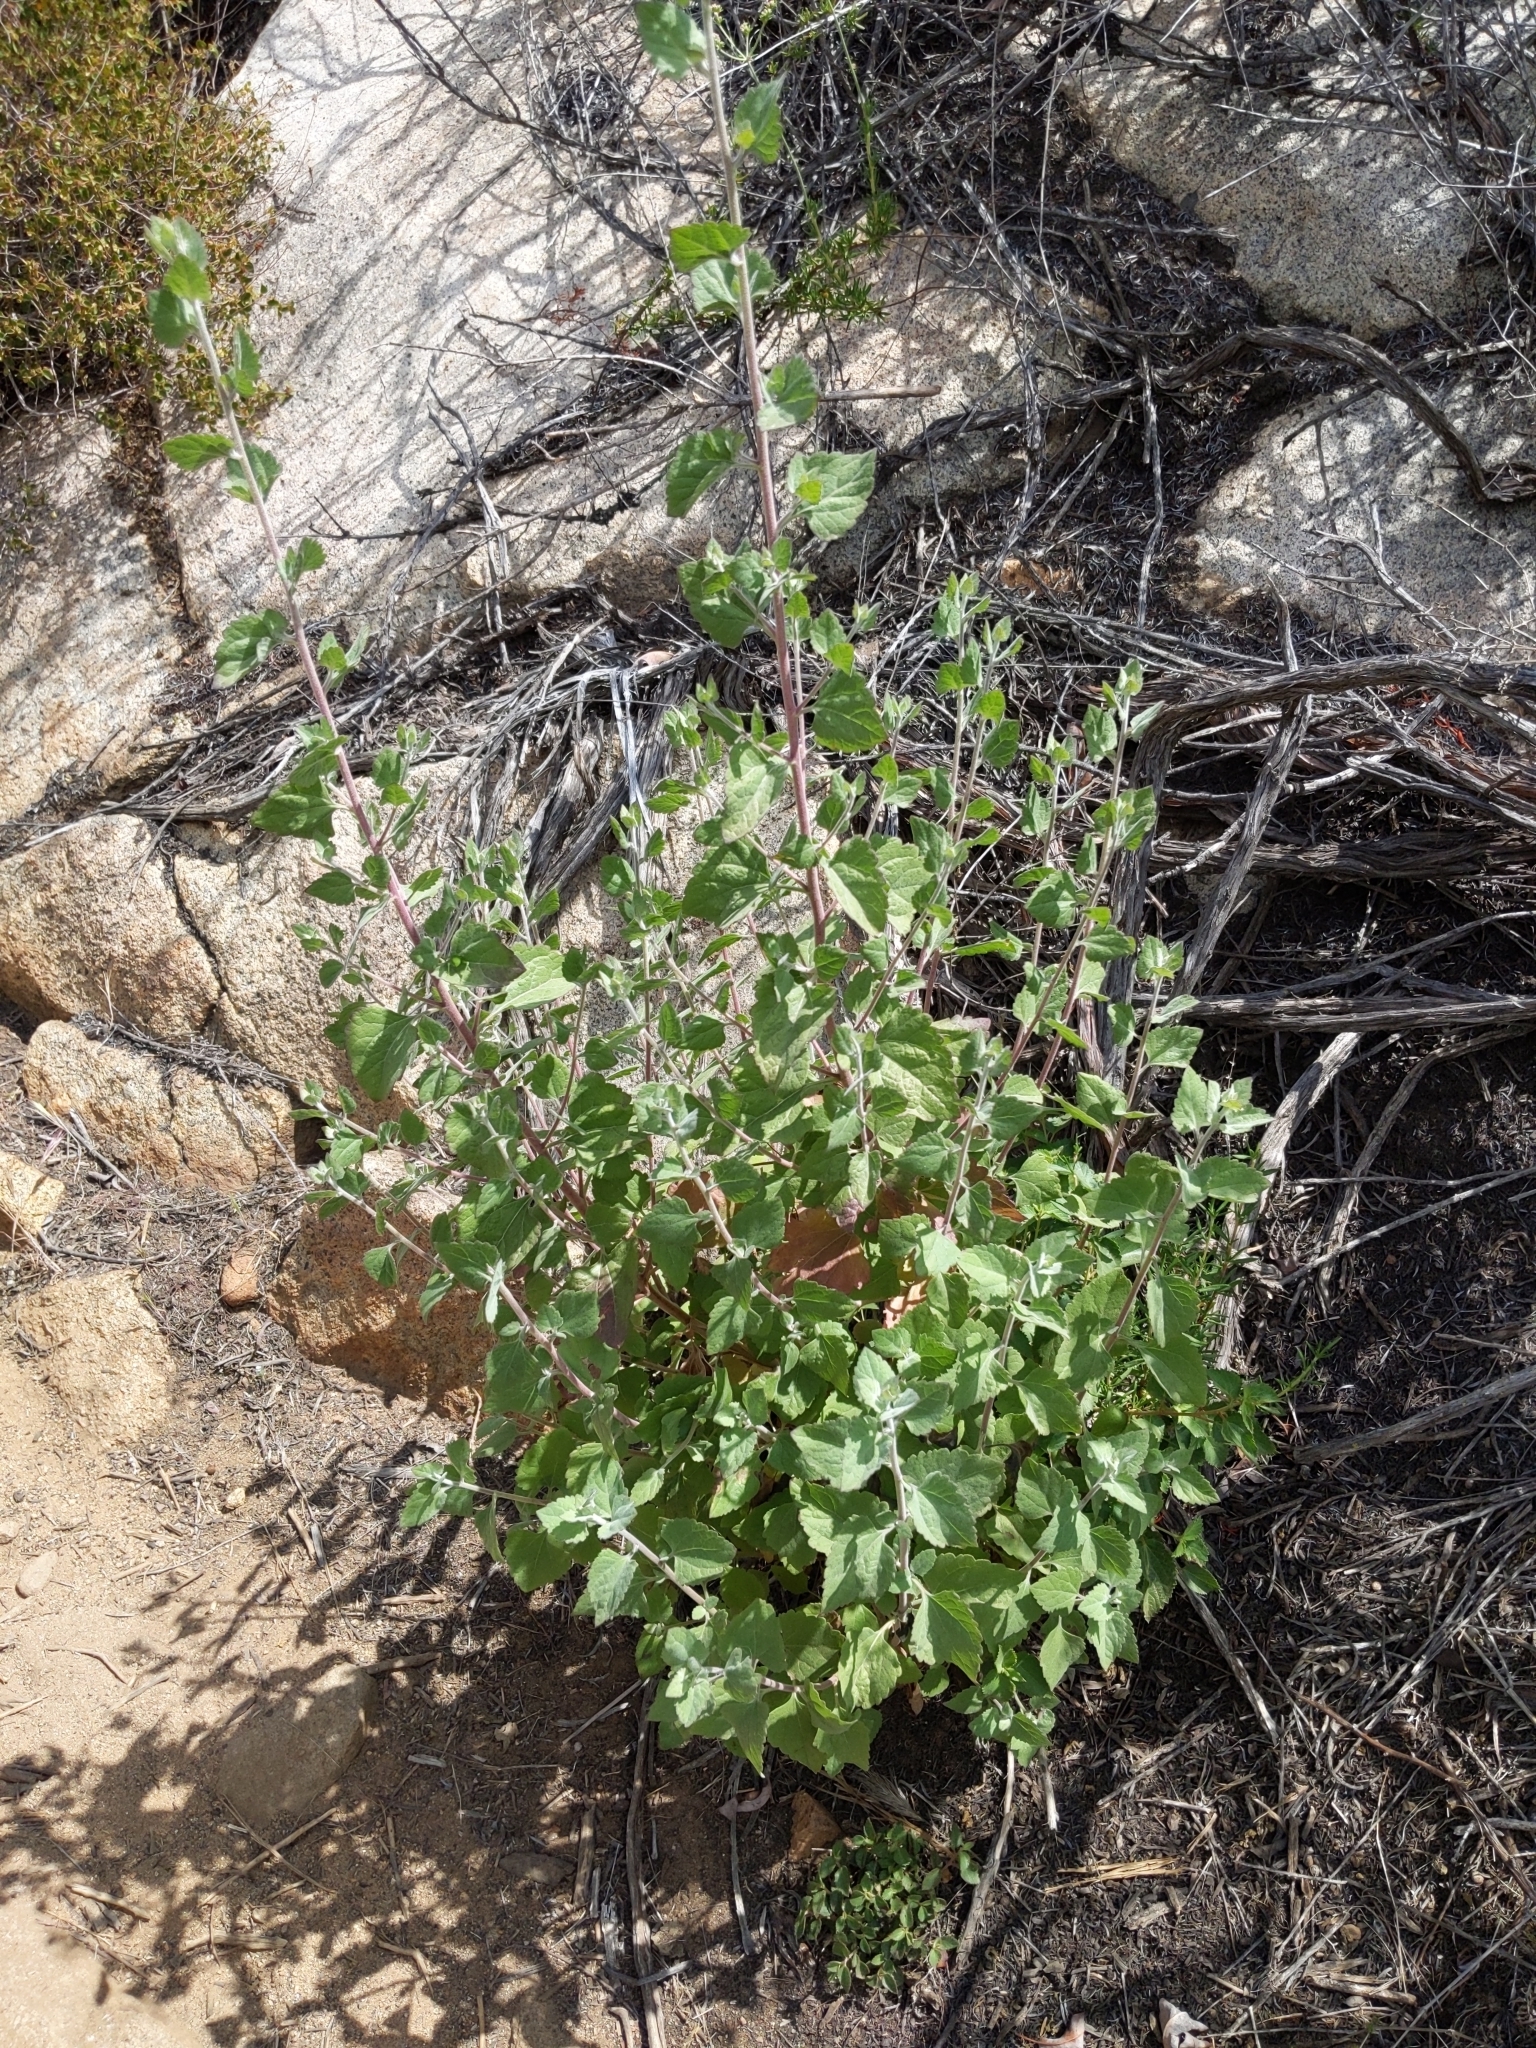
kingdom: Plantae
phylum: Tracheophyta
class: Magnoliopsida
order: Asterales
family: Asteraceae
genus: Brickellia
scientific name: Brickellia californica
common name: California brickellbush
